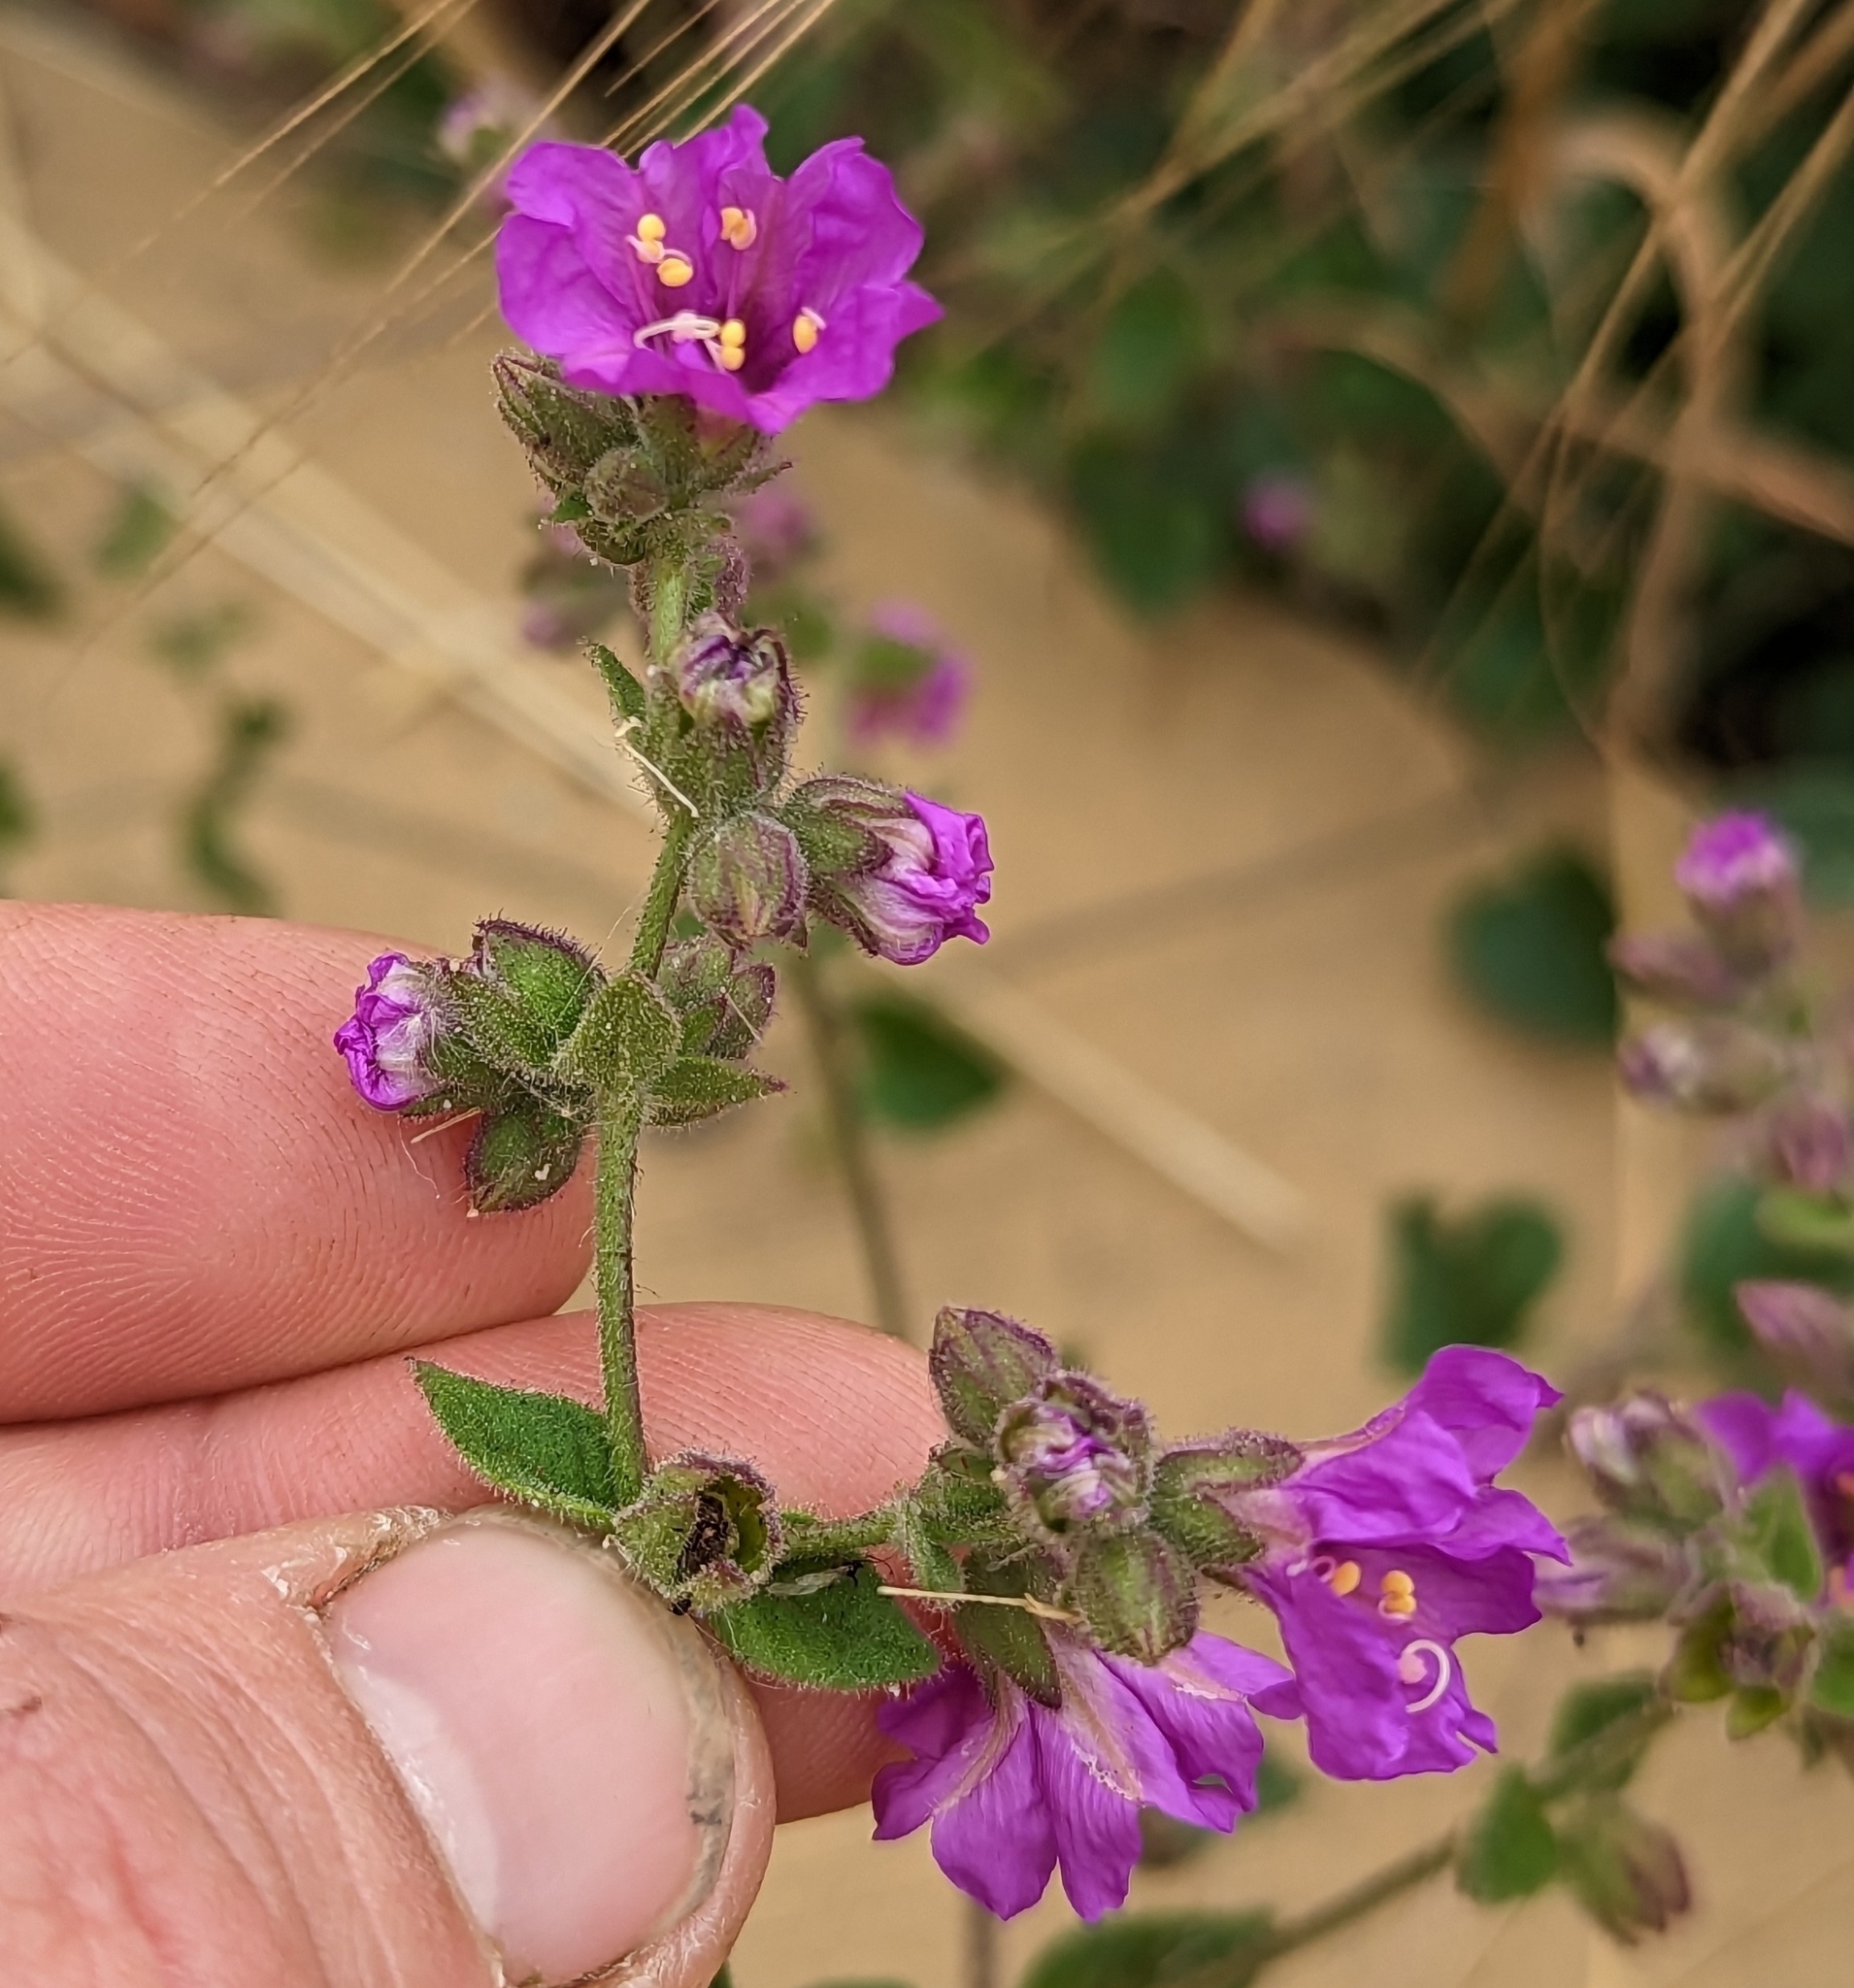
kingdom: Plantae
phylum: Tracheophyta
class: Magnoliopsida
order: Caryophyllales
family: Nyctaginaceae
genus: Mirabilis
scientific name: Mirabilis laevis
